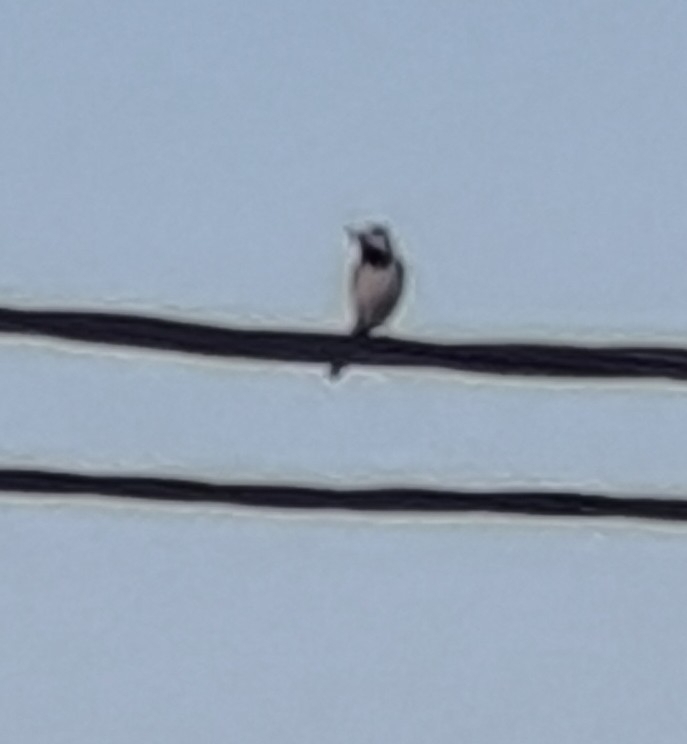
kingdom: Animalia
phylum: Chordata
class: Aves
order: Passeriformes
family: Motacillidae
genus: Motacilla
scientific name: Motacilla alba
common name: White wagtail
